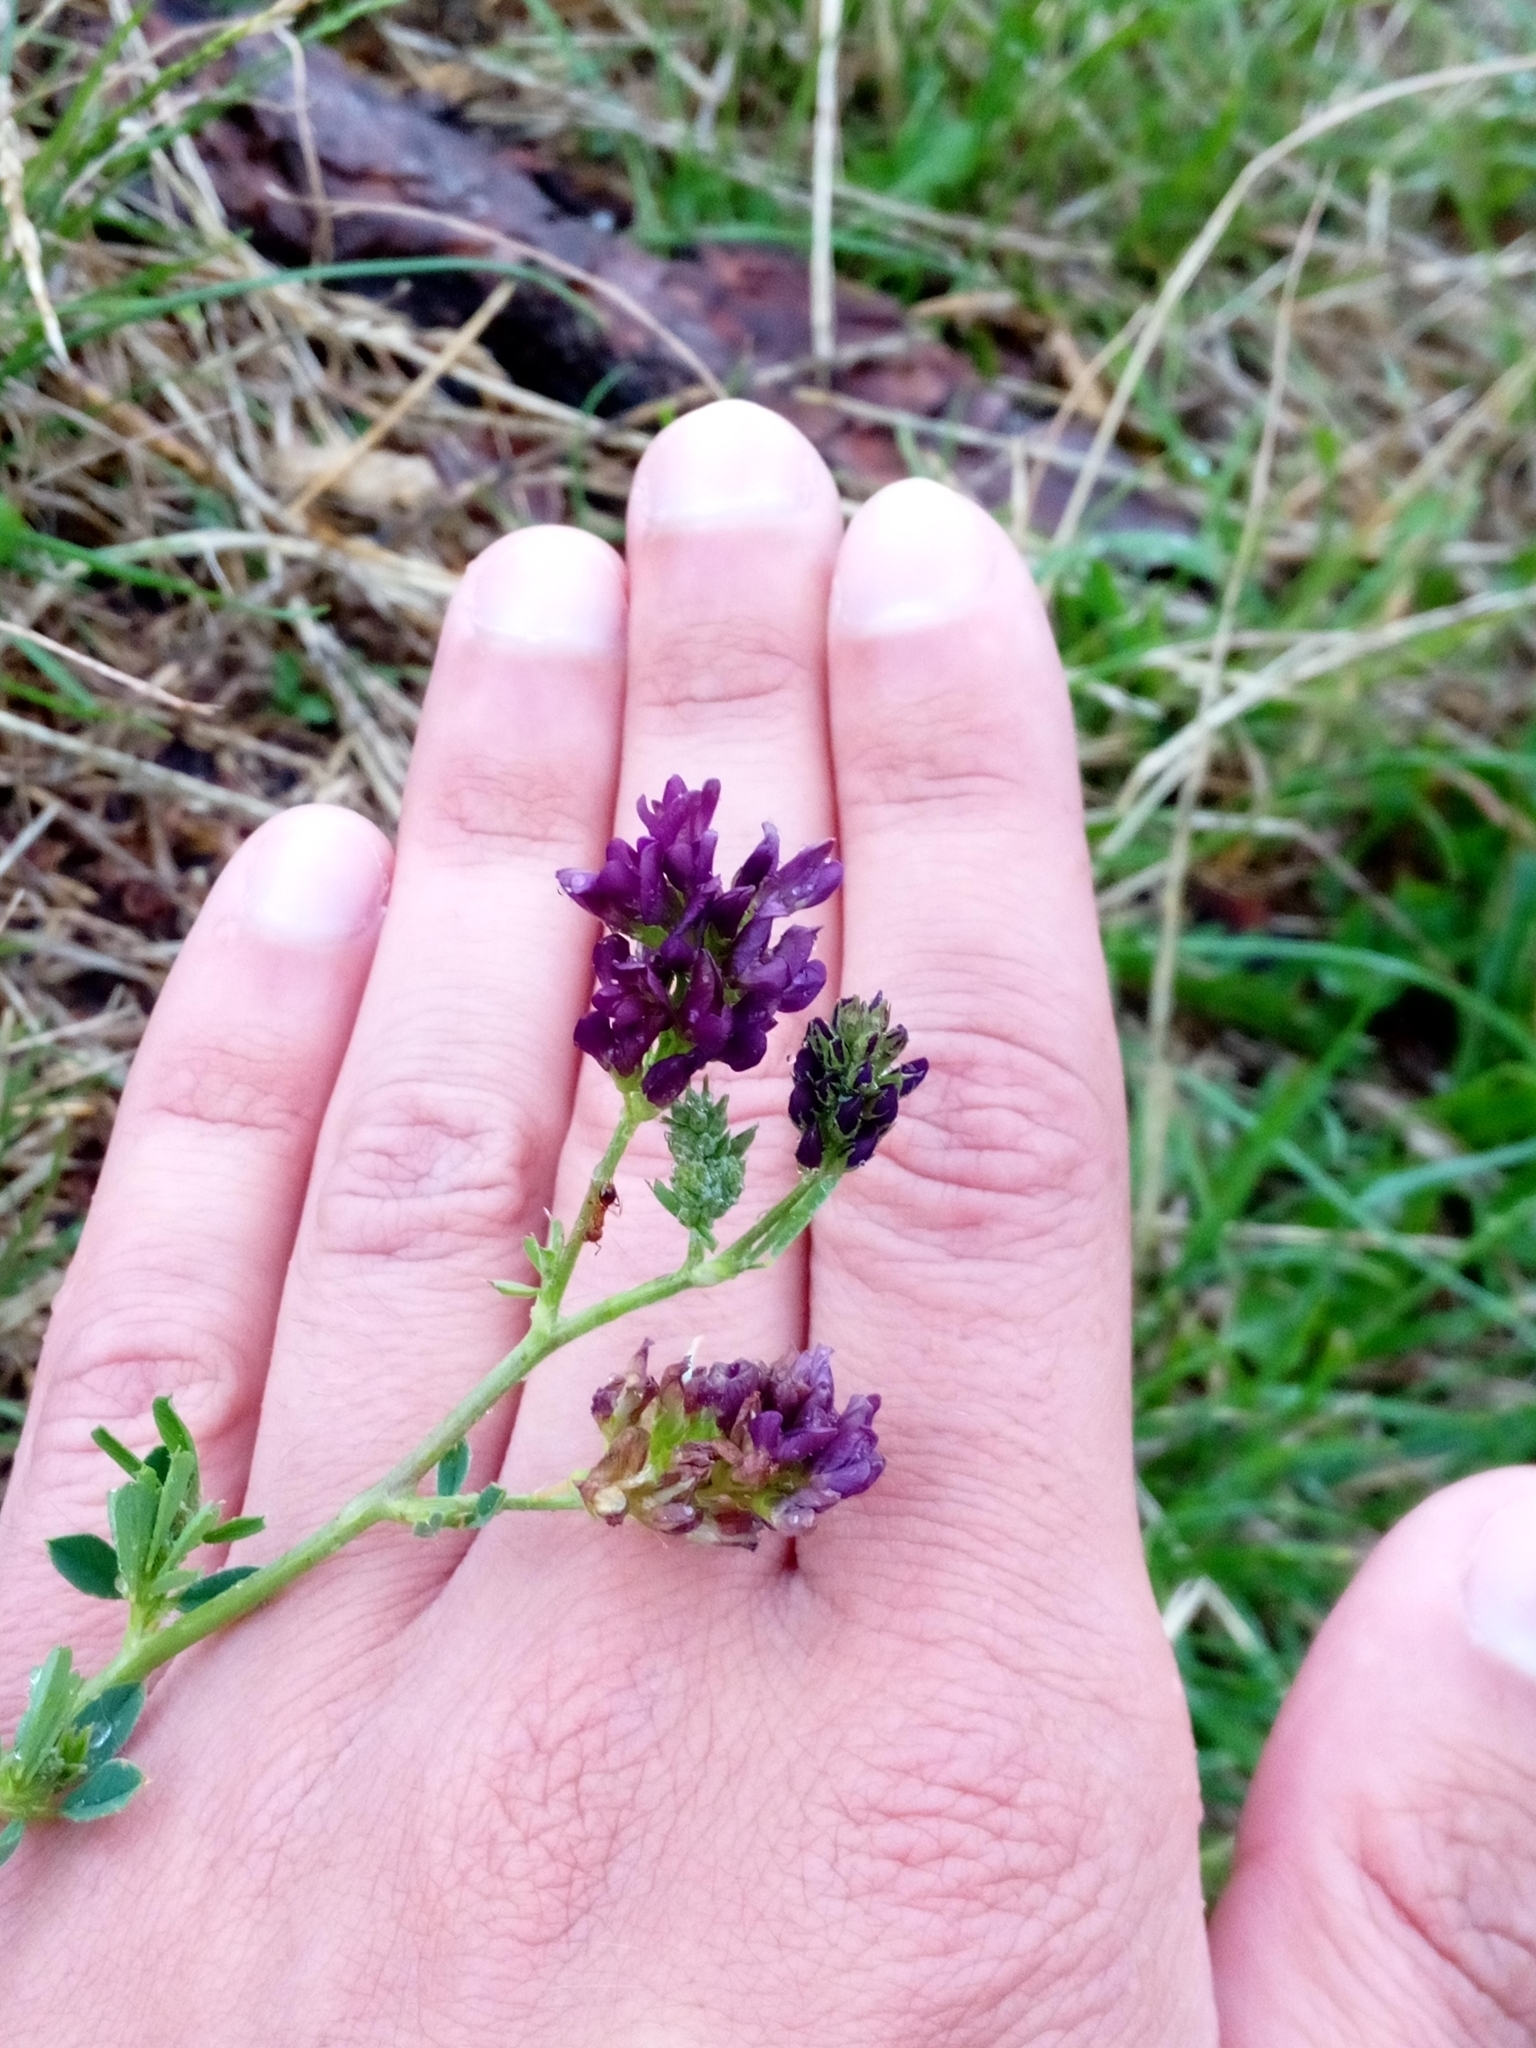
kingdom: Plantae
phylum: Tracheophyta
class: Magnoliopsida
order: Fabales
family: Fabaceae
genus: Medicago
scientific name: Medicago sativa
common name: Alfalfa
